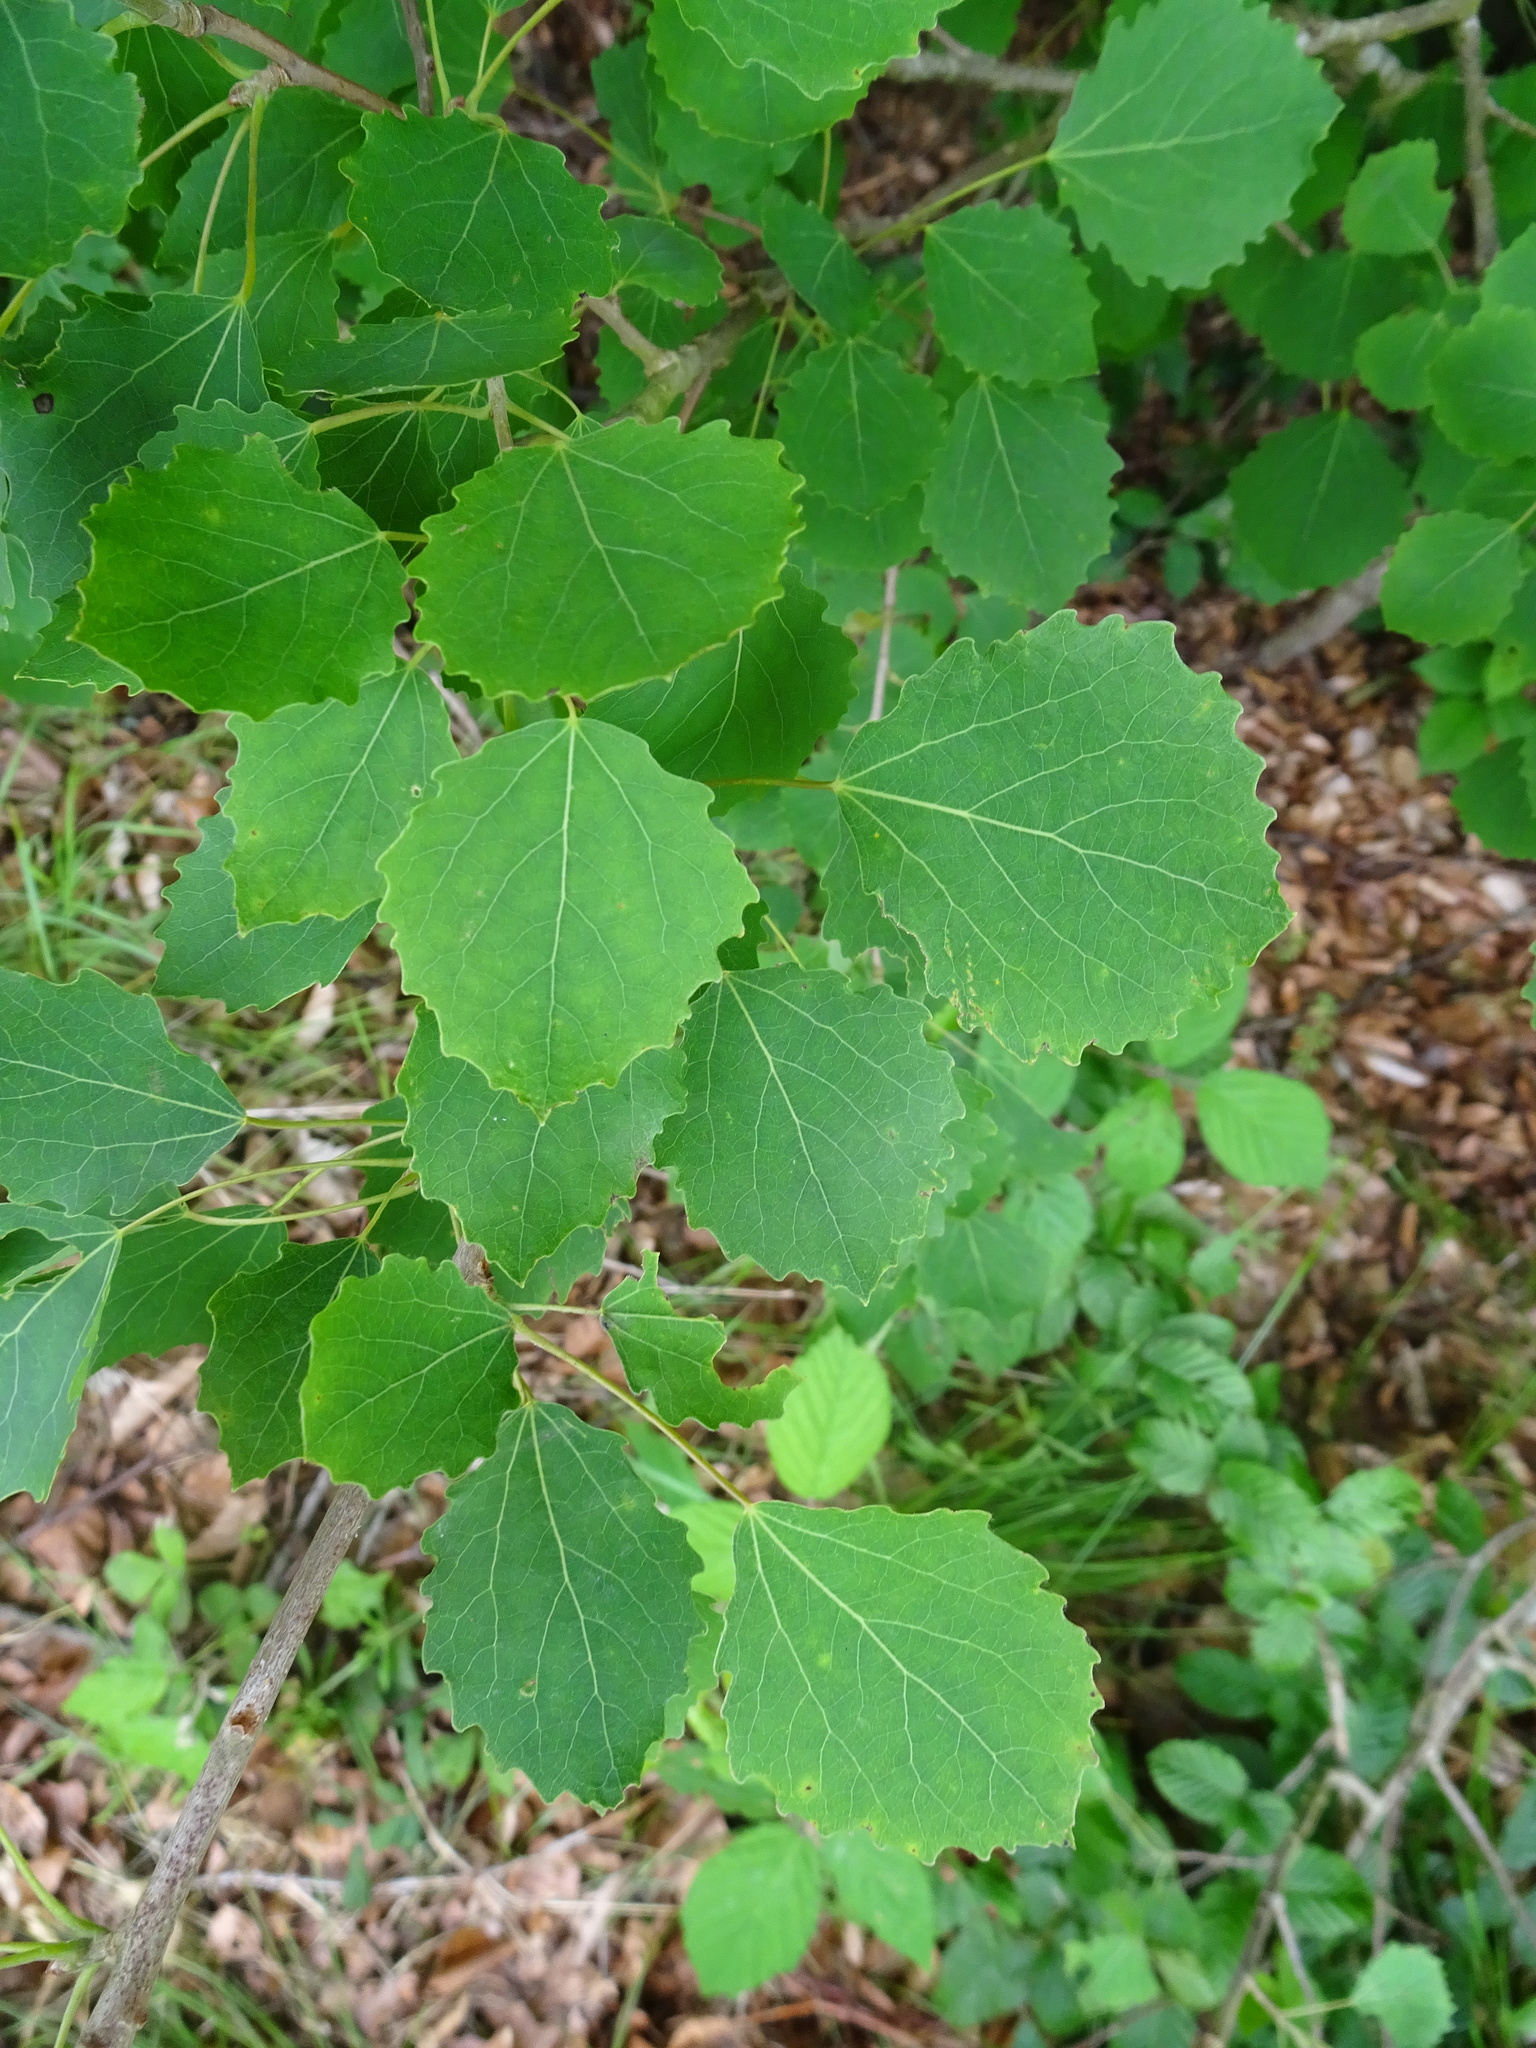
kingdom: Plantae
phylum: Tracheophyta
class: Magnoliopsida
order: Malpighiales
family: Salicaceae
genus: Populus
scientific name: Populus tremula
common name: European aspen
